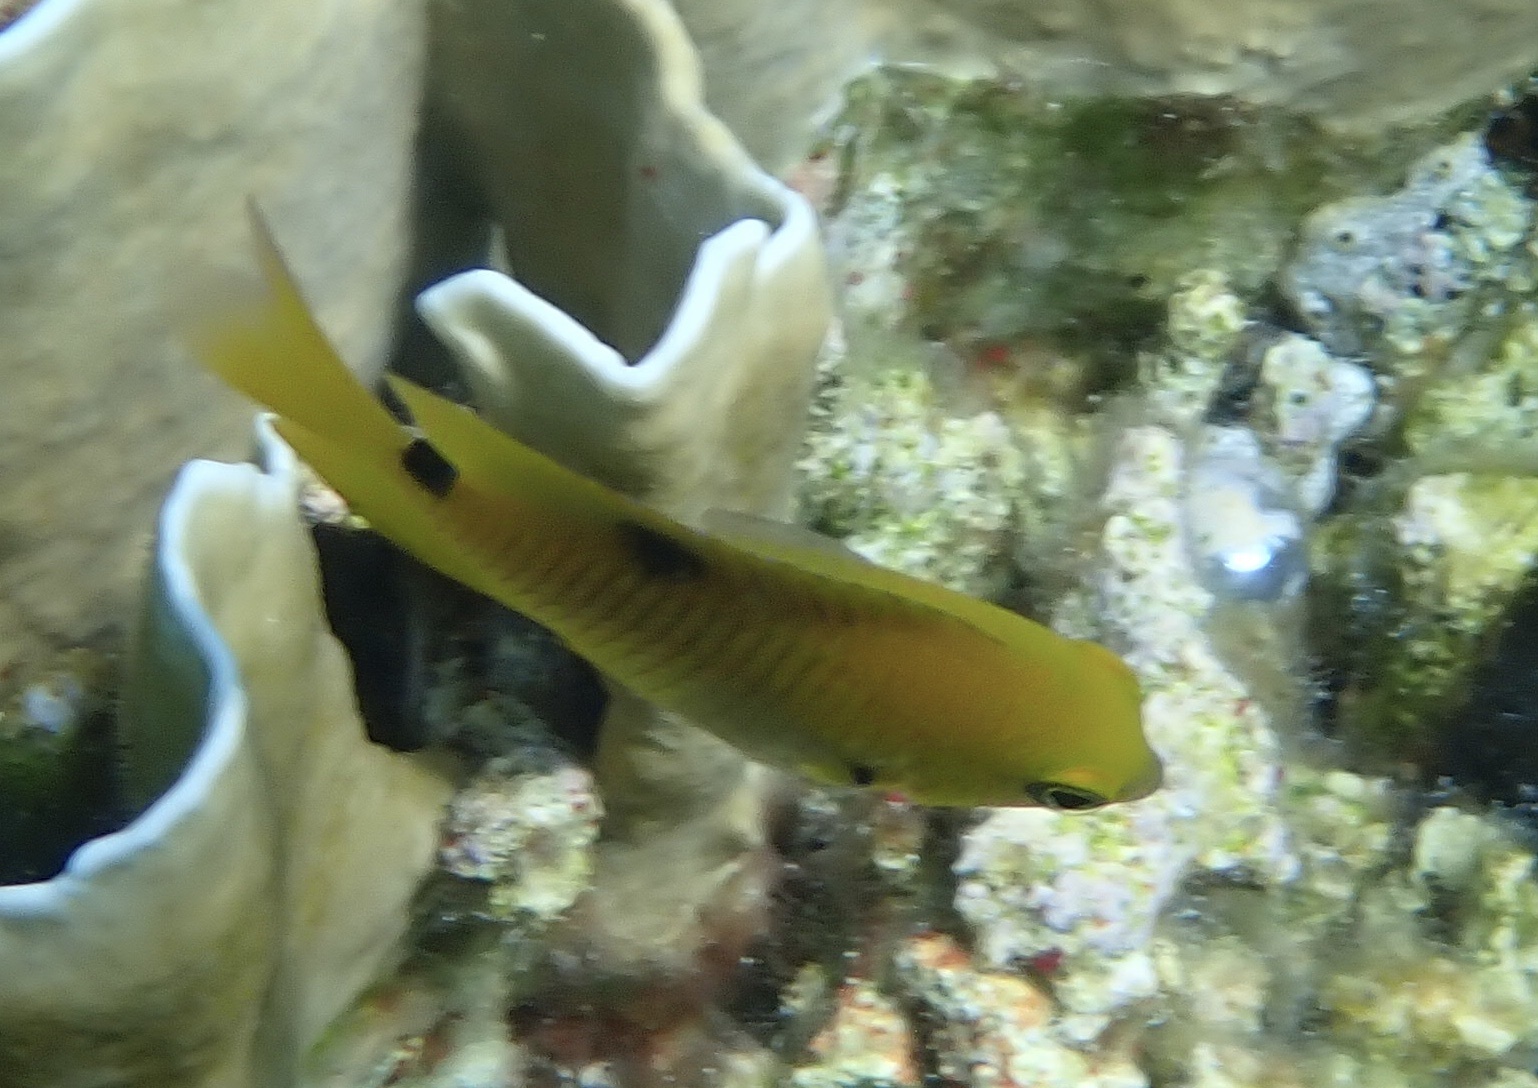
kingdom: Animalia
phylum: Chordata
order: Perciformes
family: Pomacentridae
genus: Stegastes
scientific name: Stegastes planifrons
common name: Threespot damselfish
